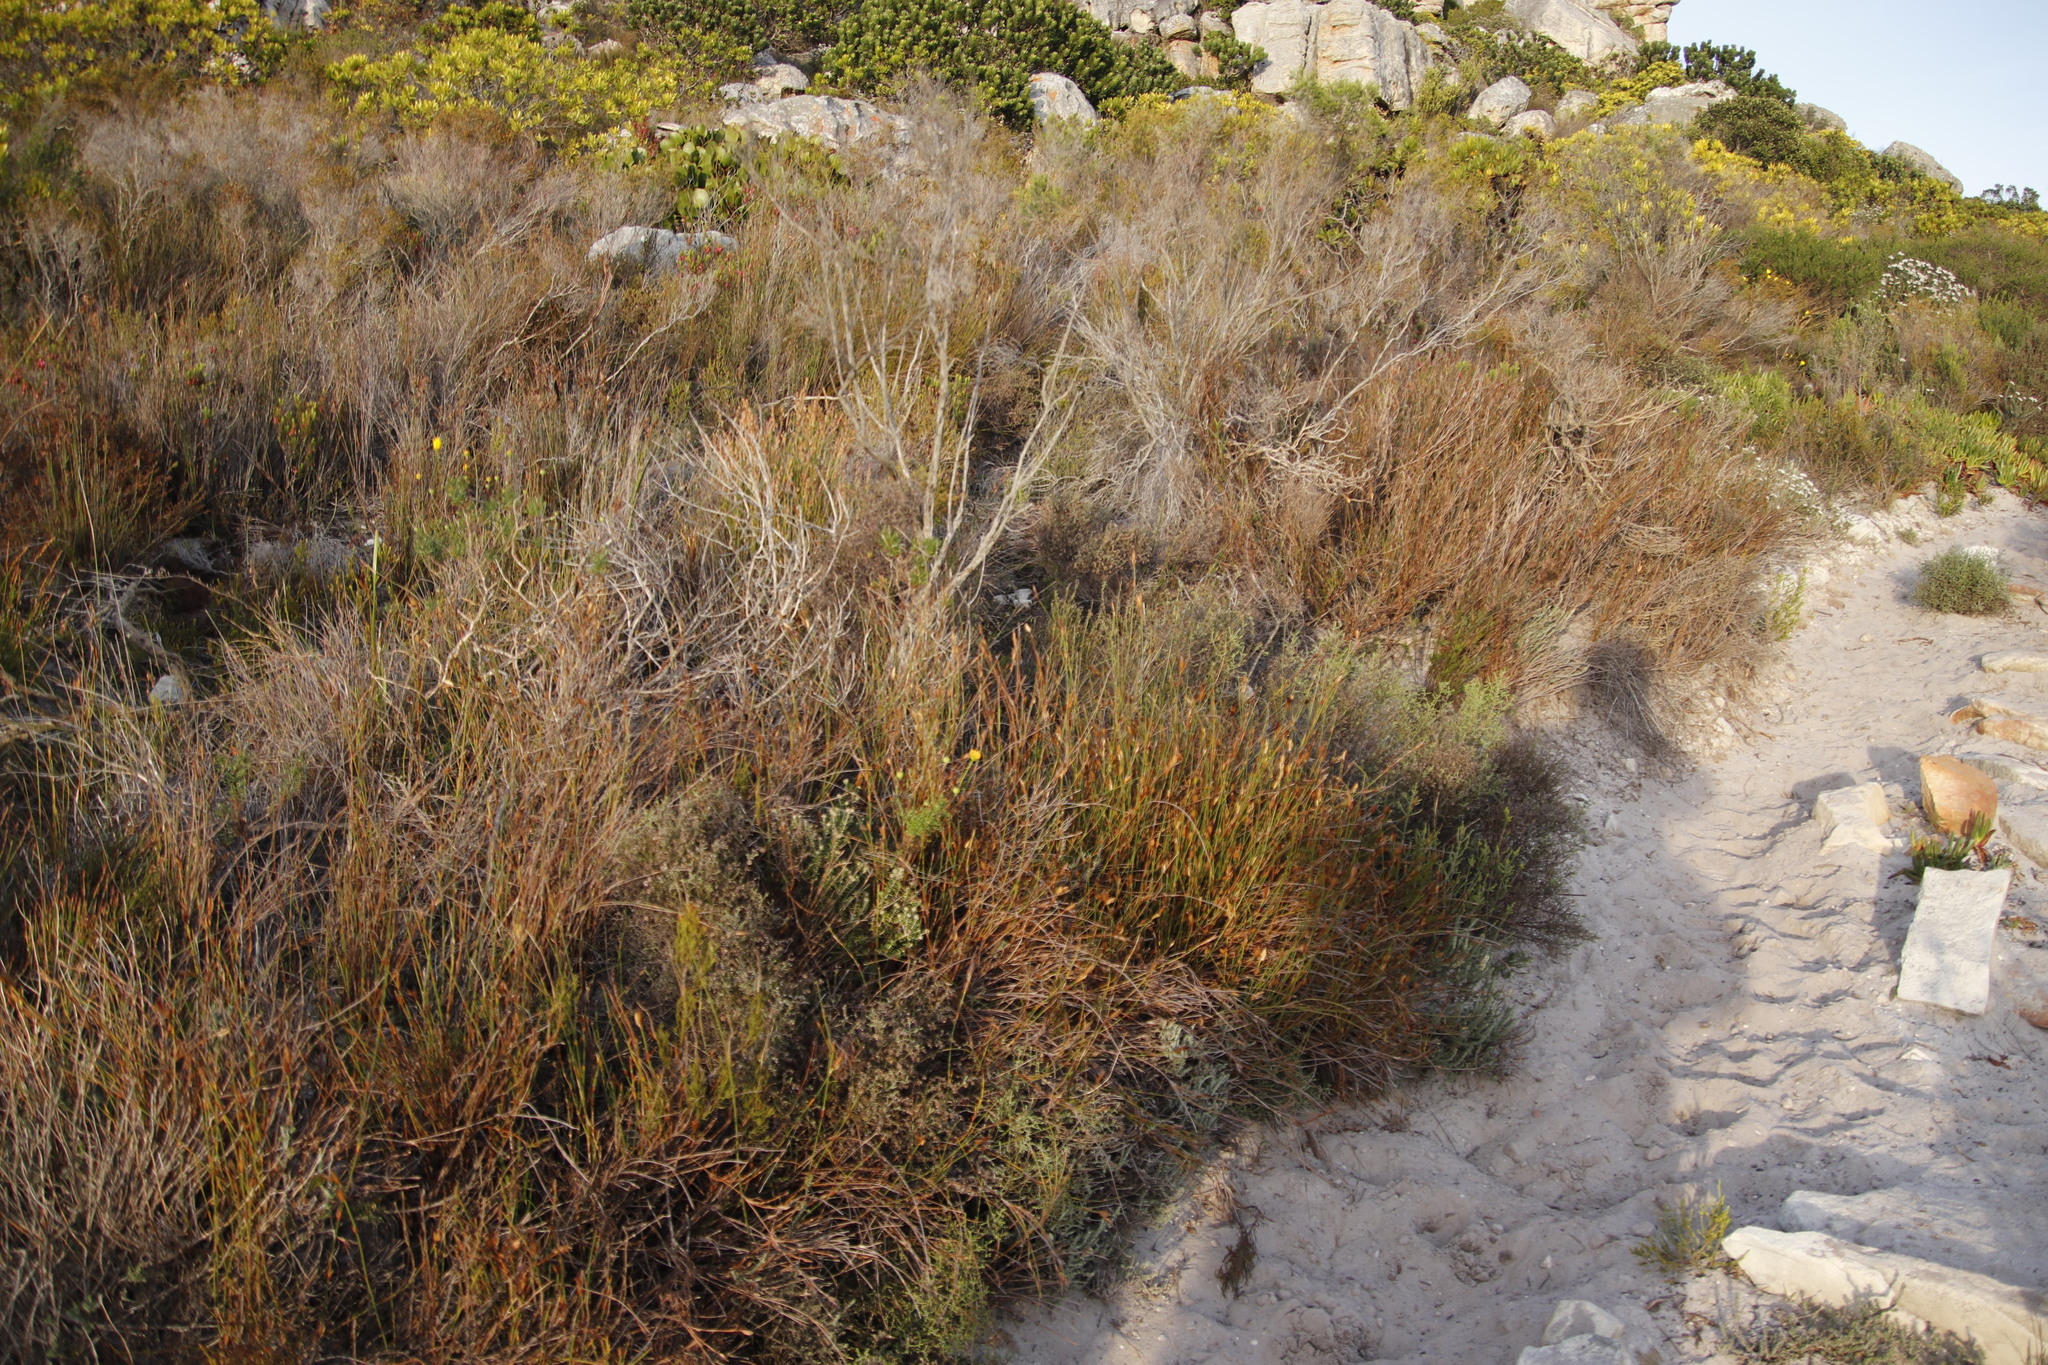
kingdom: Plantae
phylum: Tracheophyta
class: Liliopsida
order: Poales
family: Restionaceae
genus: Willdenowia
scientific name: Willdenowia teres
